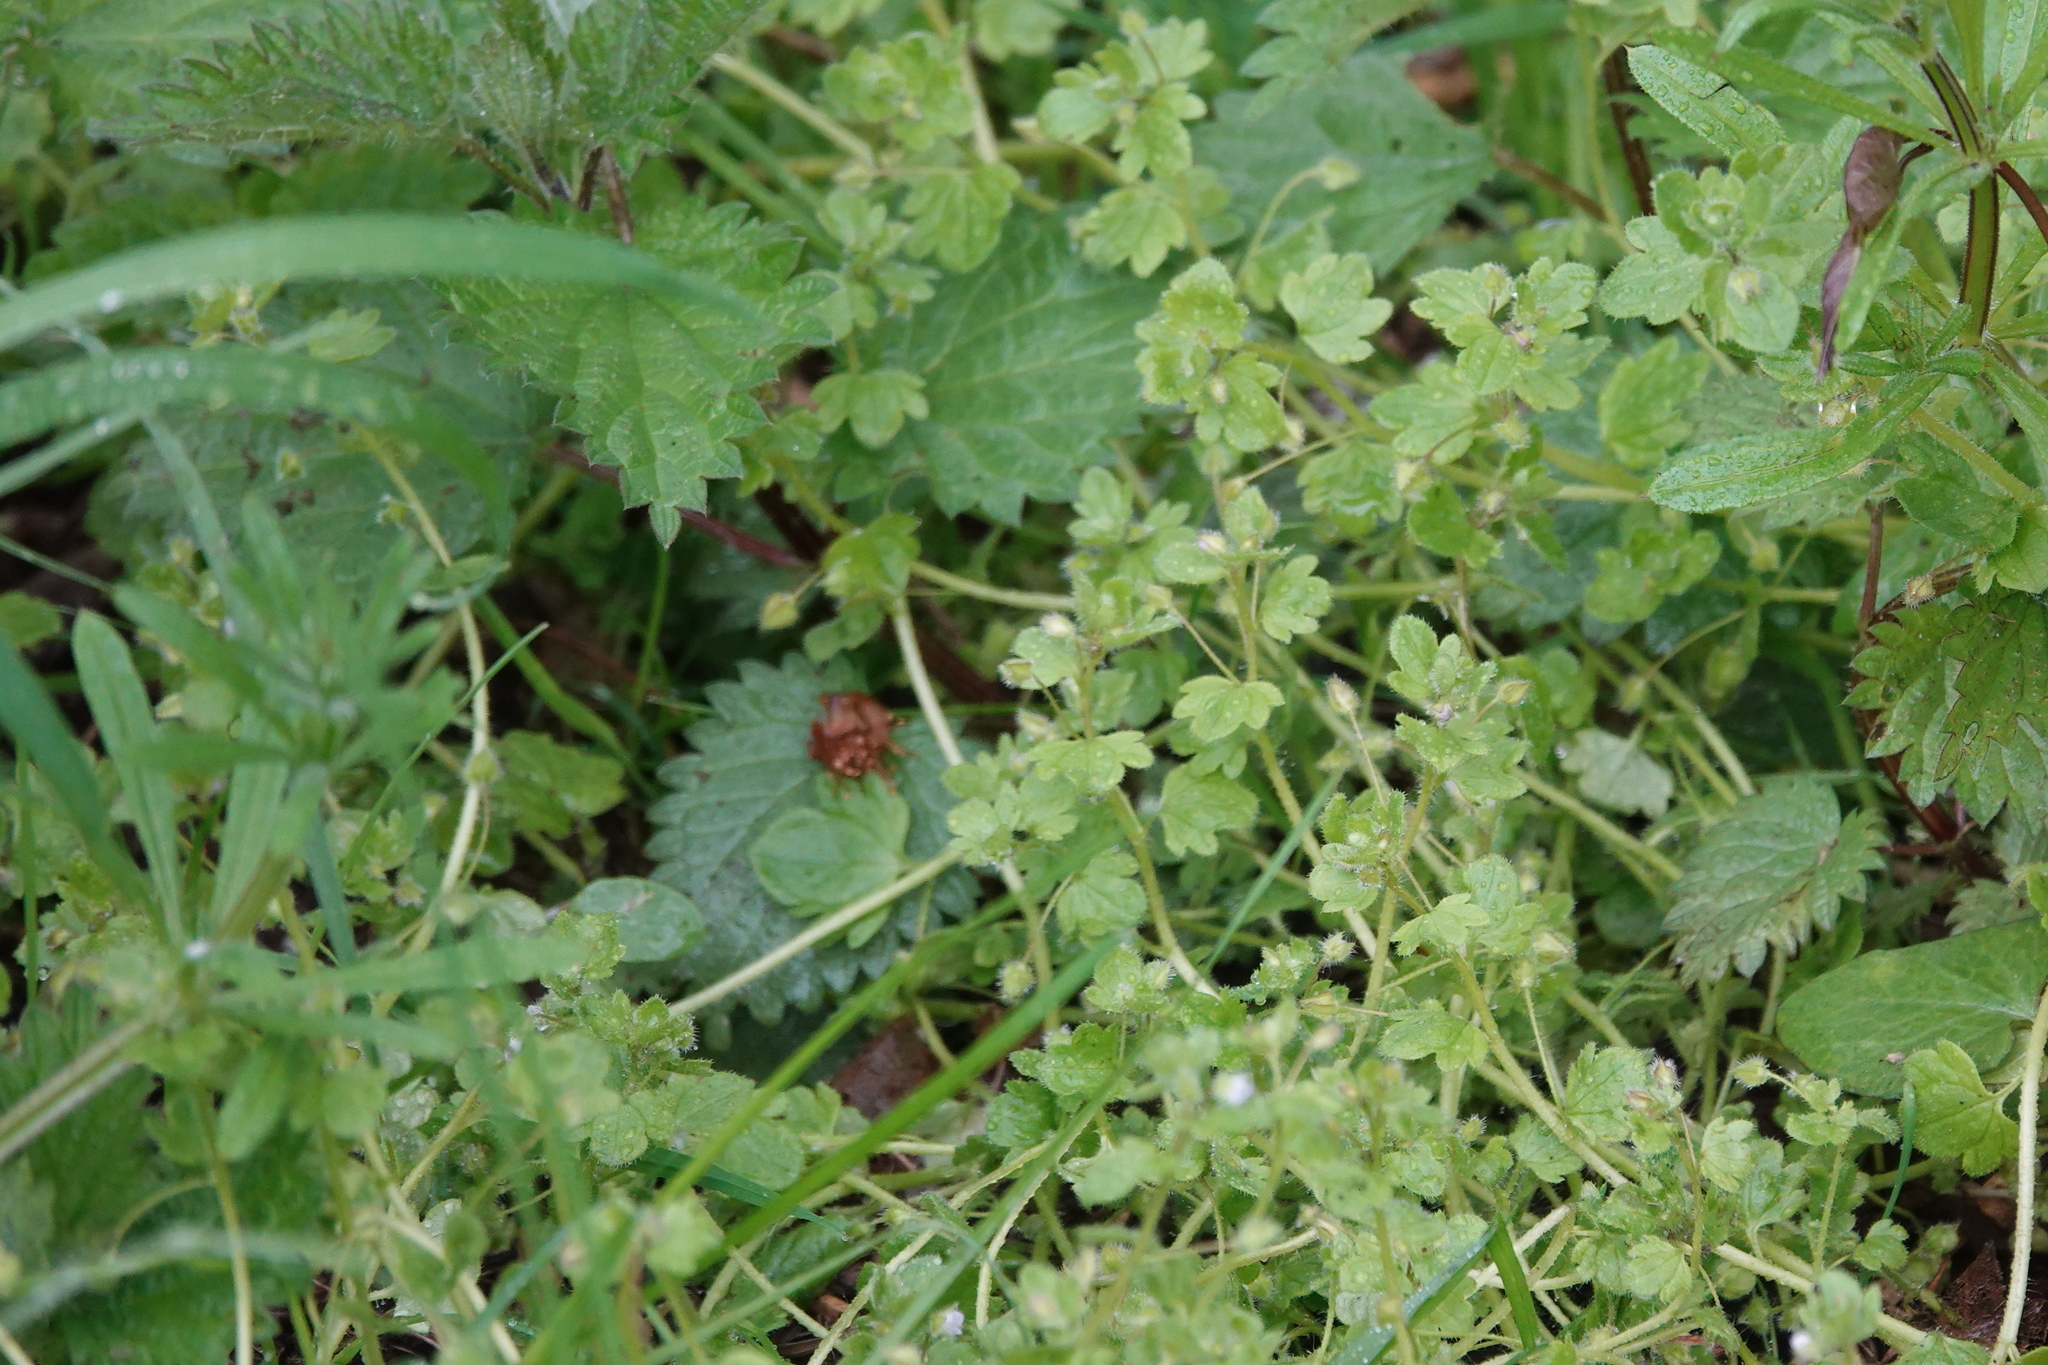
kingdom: Plantae
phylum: Tracheophyta
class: Magnoliopsida
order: Lamiales
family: Plantaginaceae
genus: Veronica
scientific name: Veronica sublobata
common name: False ivy-leaved speedwell
